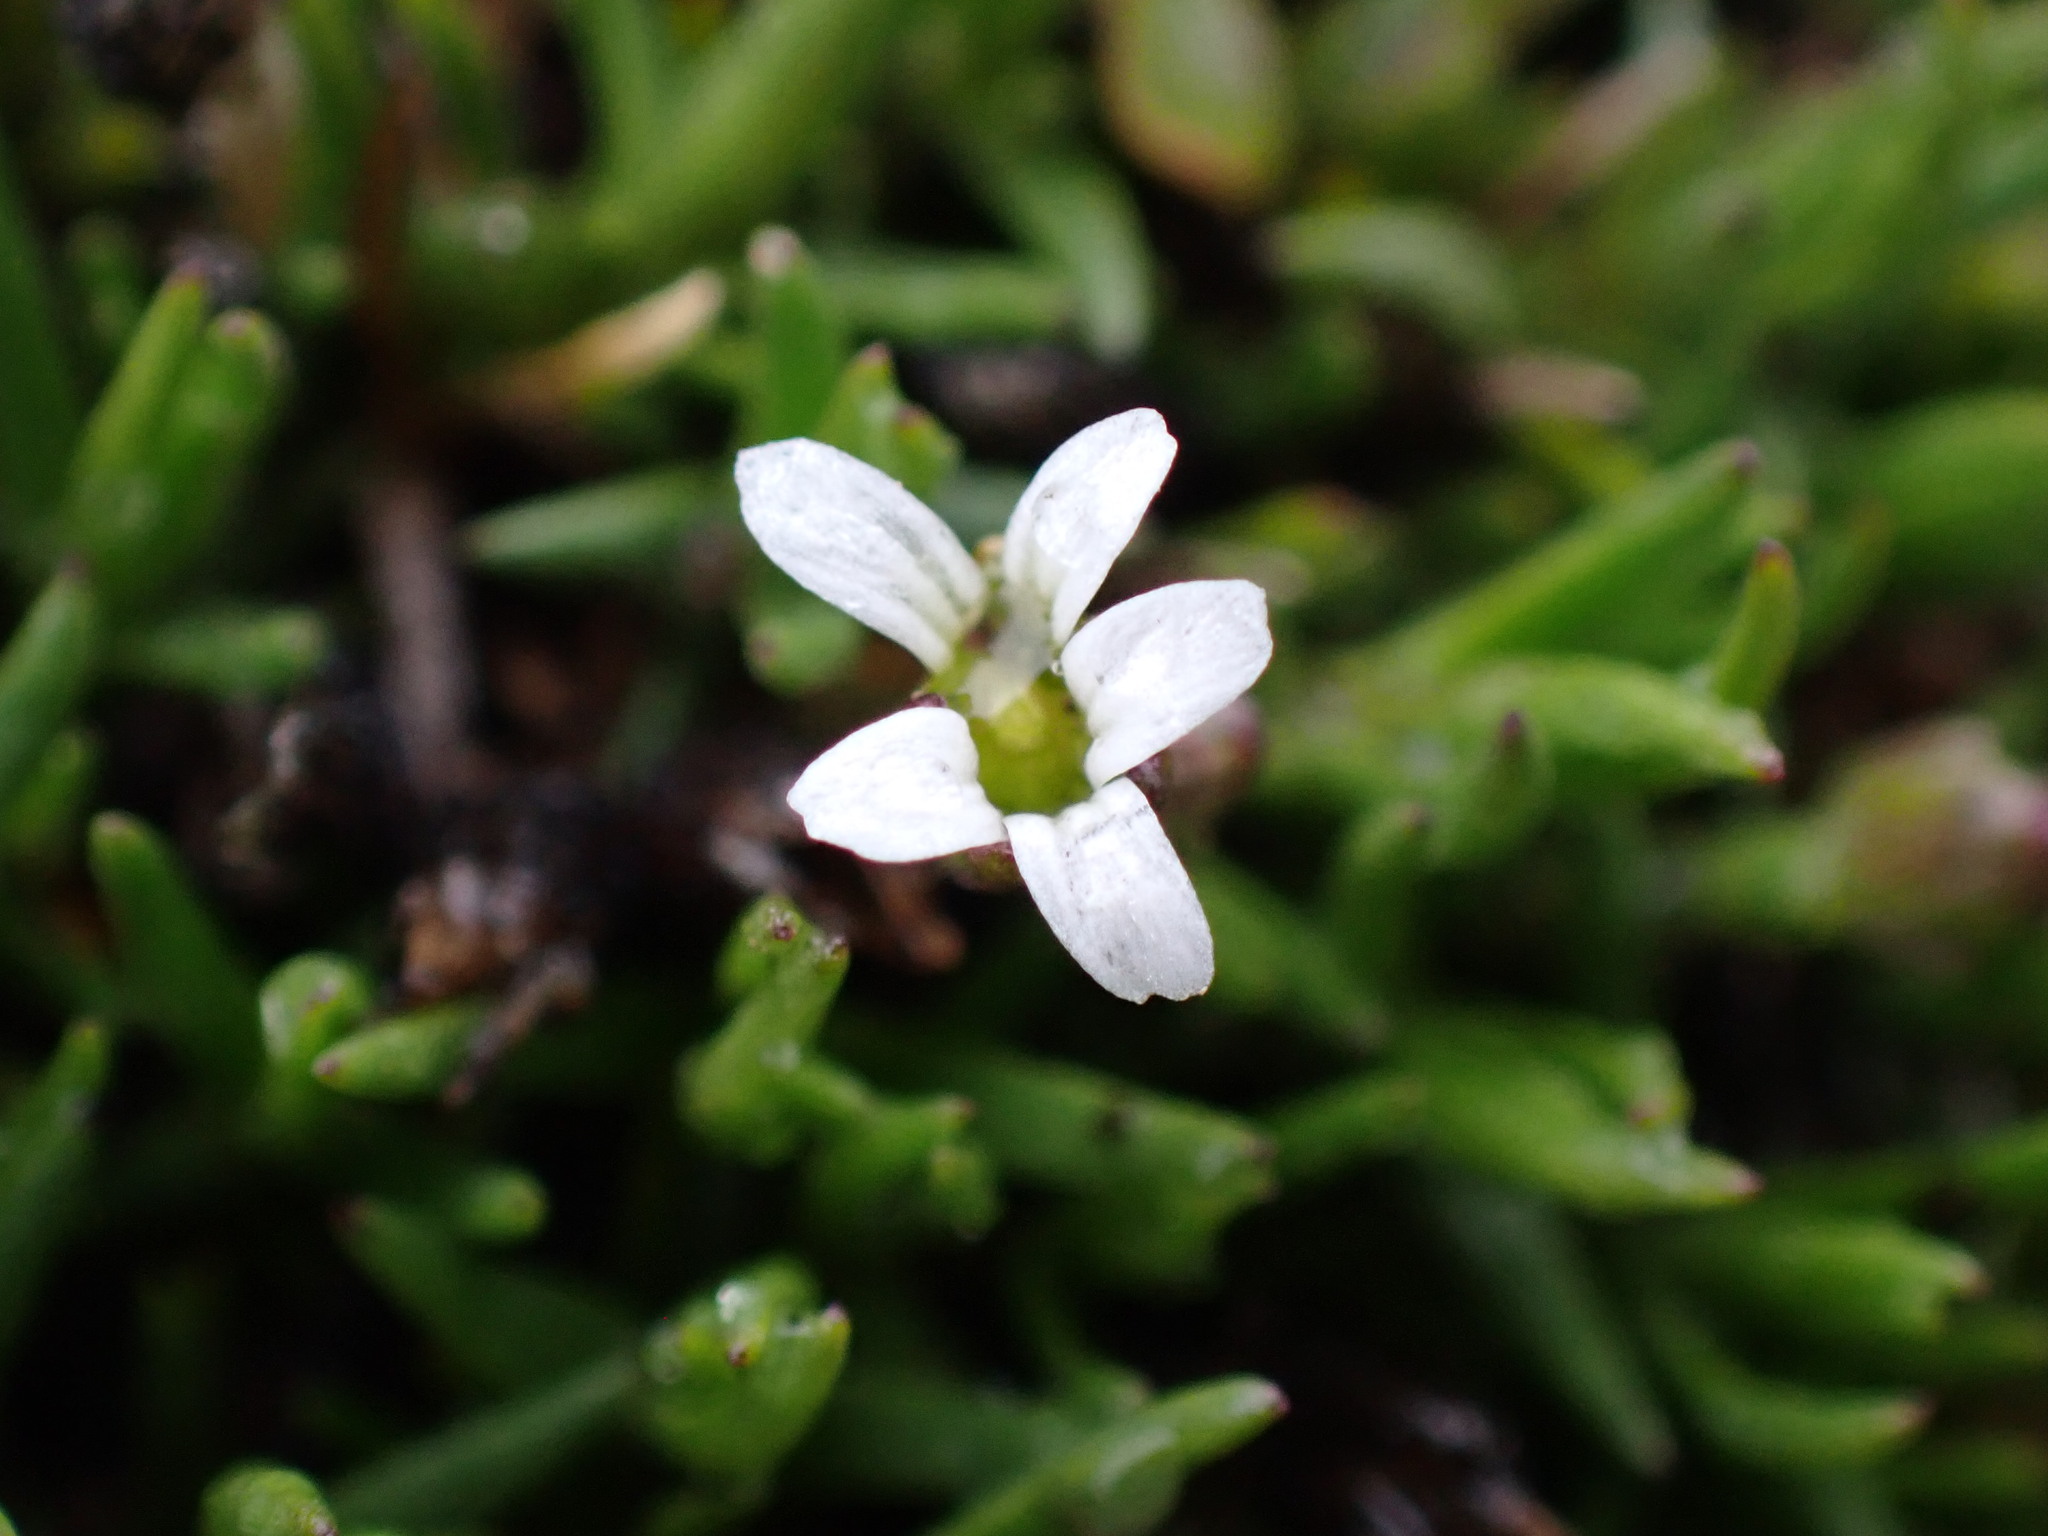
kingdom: Plantae
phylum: Tracheophyta
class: Magnoliopsida
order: Caryophyllales
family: Caryophyllaceae
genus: Cherleria
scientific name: Cherleria biflora
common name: Mountain sandwort
